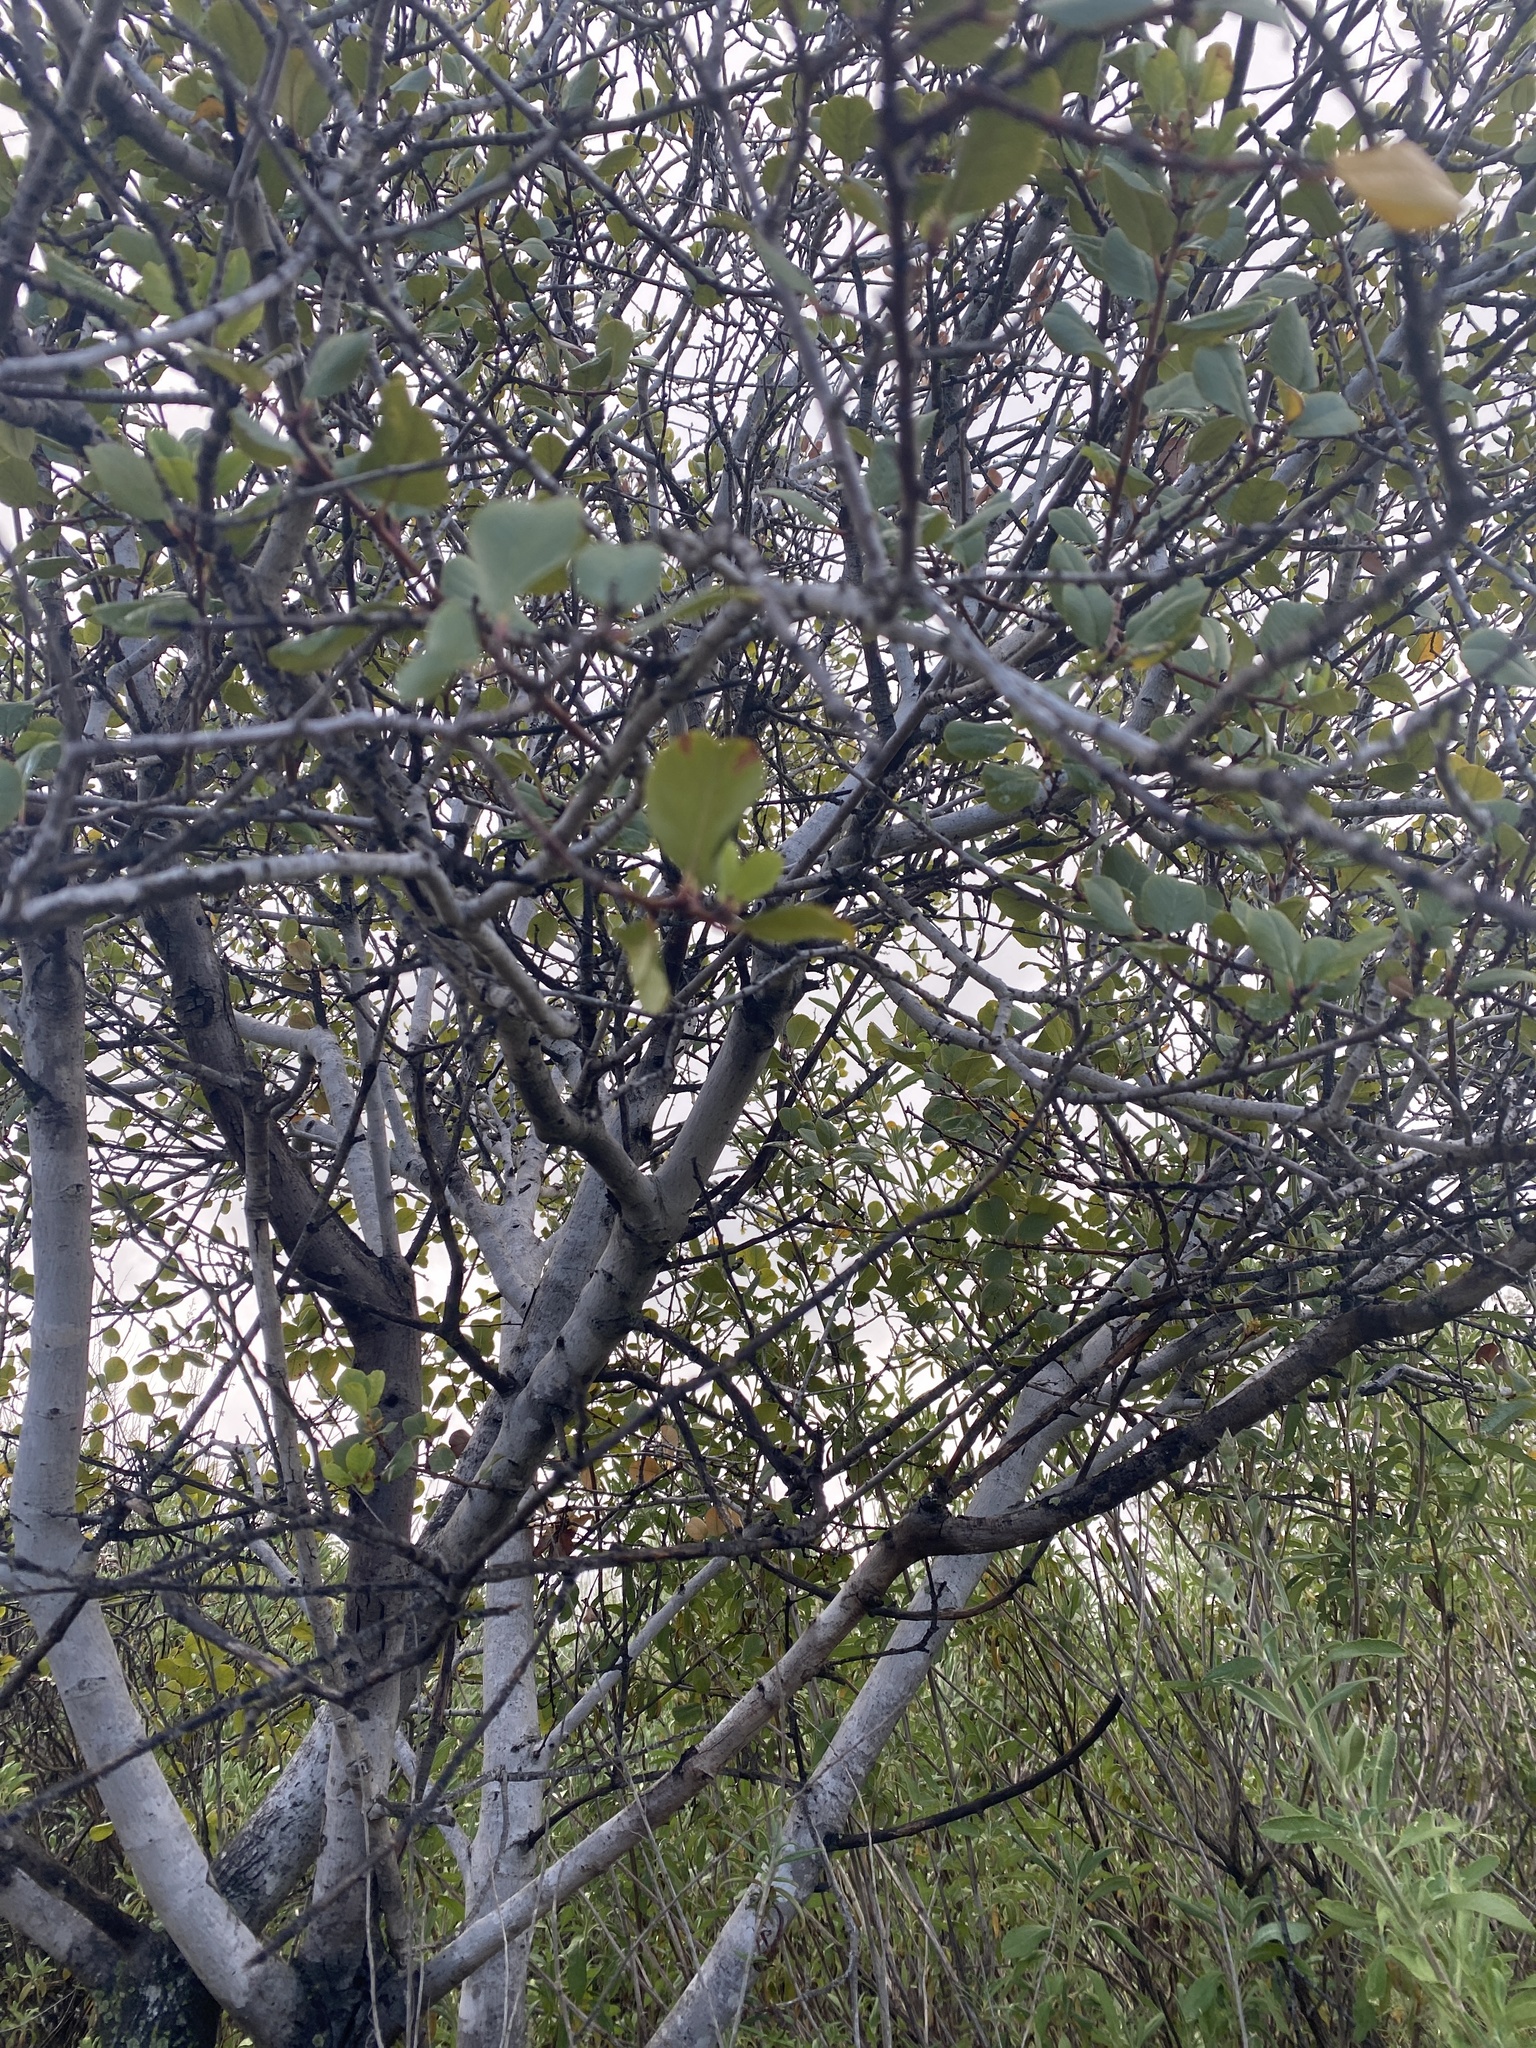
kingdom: Plantae
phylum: Tracheophyta
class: Magnoliopsida
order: Rosales
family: Rhamnaceae
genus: Endotropis
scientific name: Endotropis crocea
